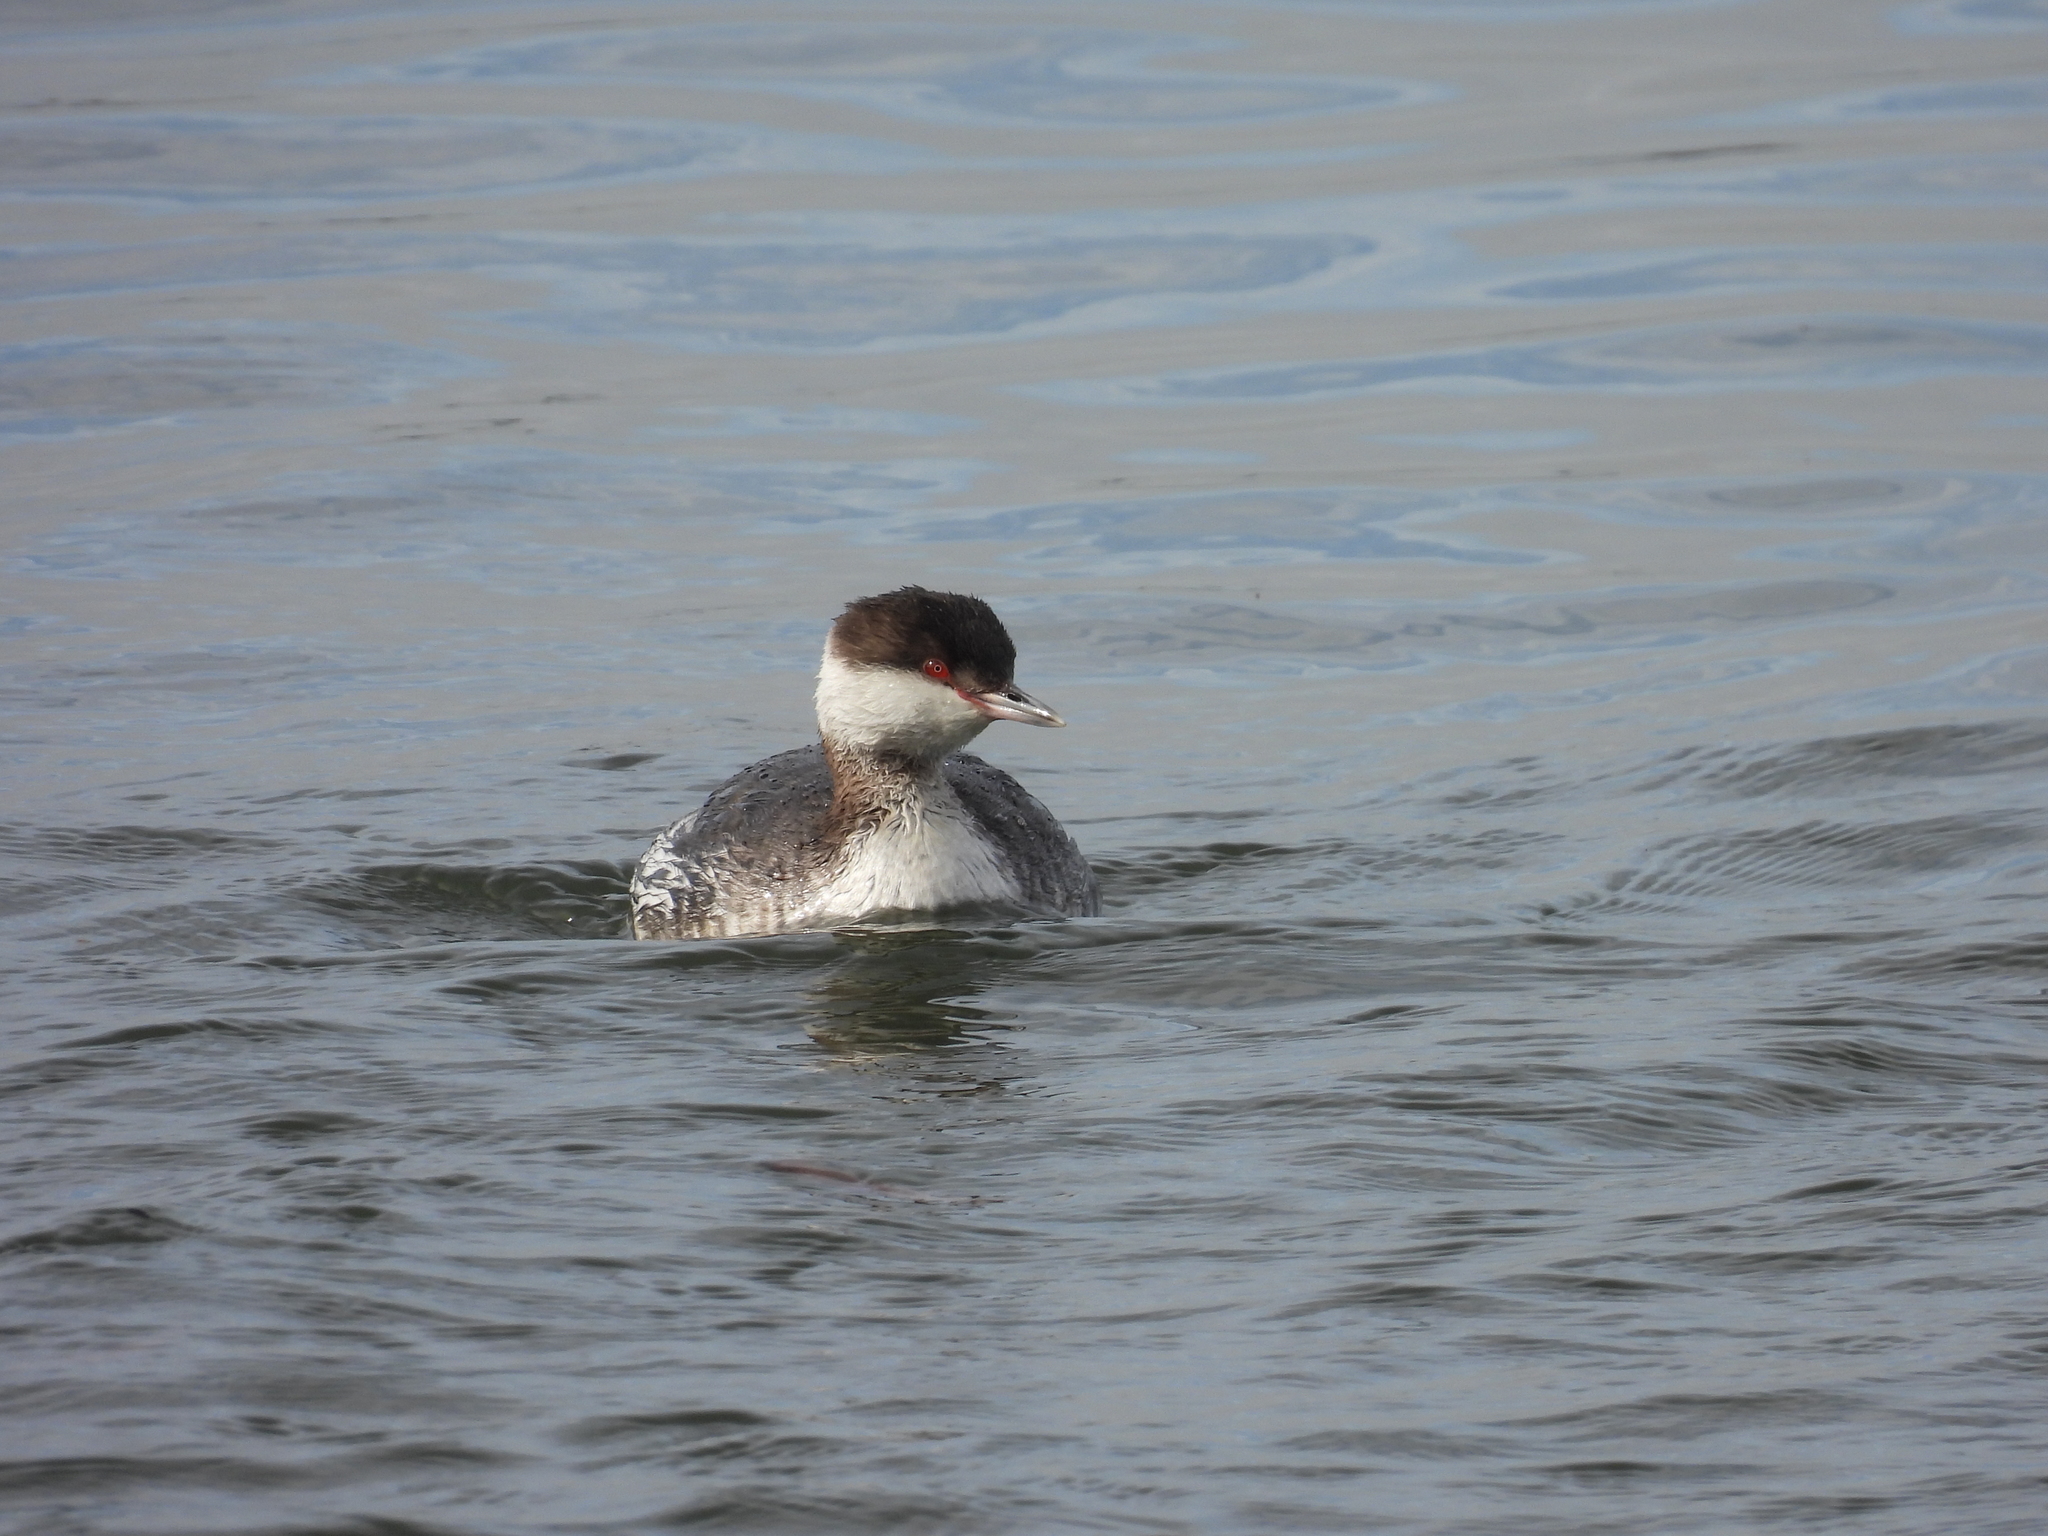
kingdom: Animalia
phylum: Chordata
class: Aves
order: Podicipediformes
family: Podicipedidae
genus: Podiceps
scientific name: Podiceps auritus
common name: Horned grebe
